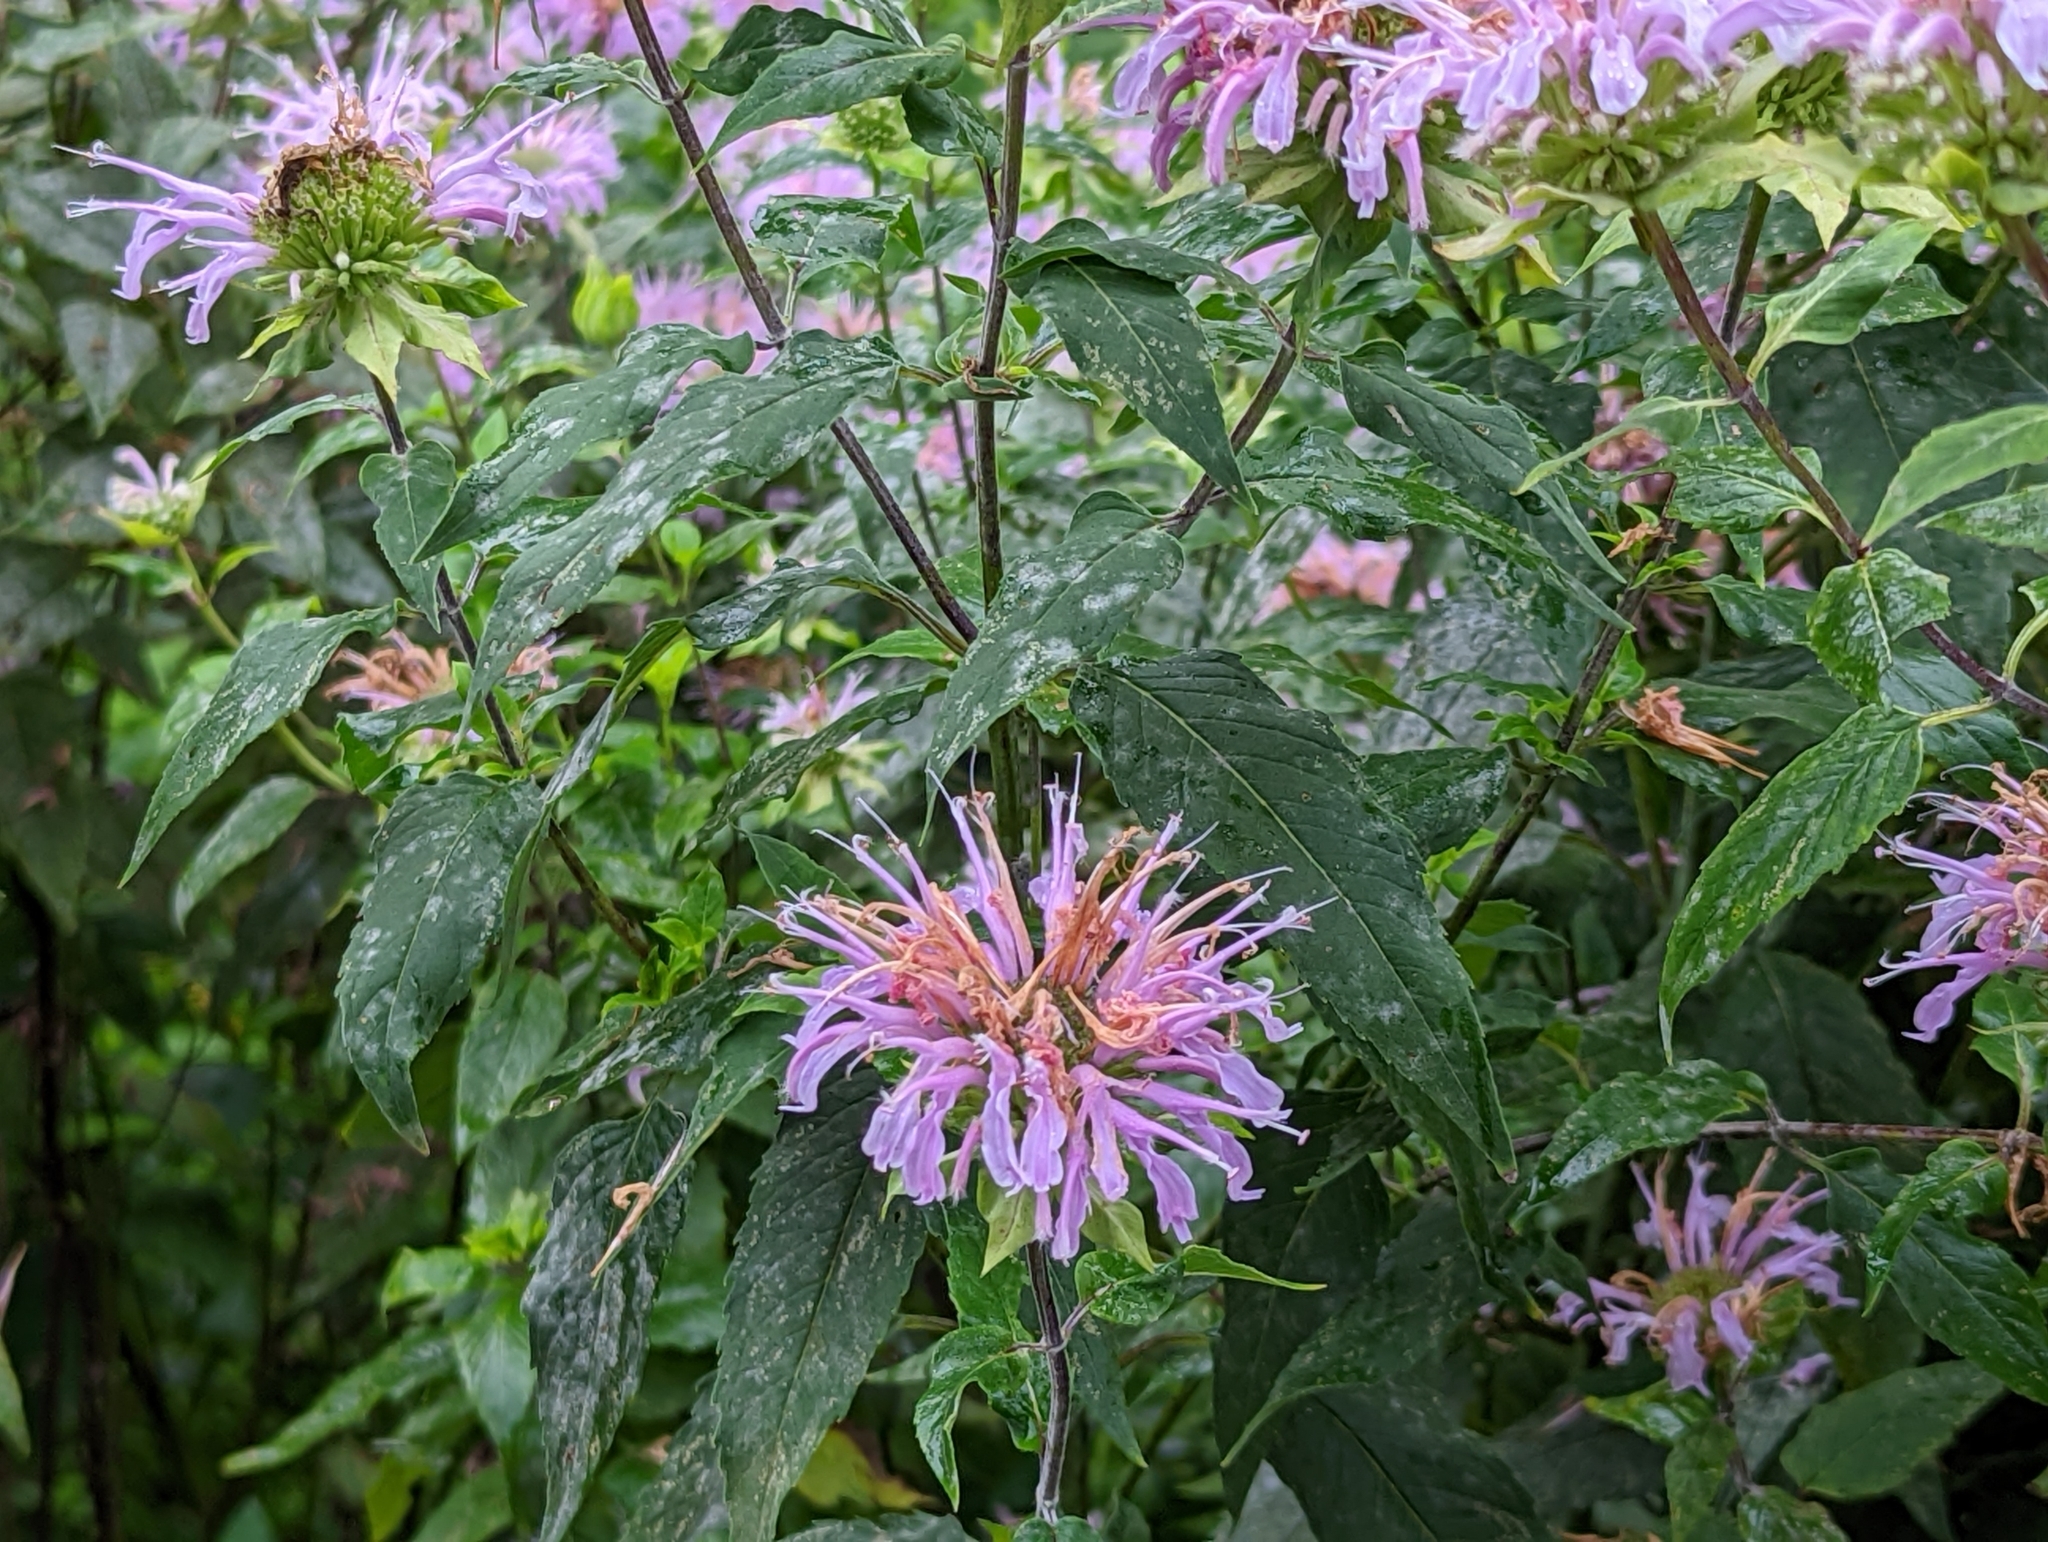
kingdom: Plantae
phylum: Tracheophyta
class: Magnoliopsida
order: Lamiales
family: Lamiaceae
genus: Monarda
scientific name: Monarda fistulosa
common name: Purple beebalm
